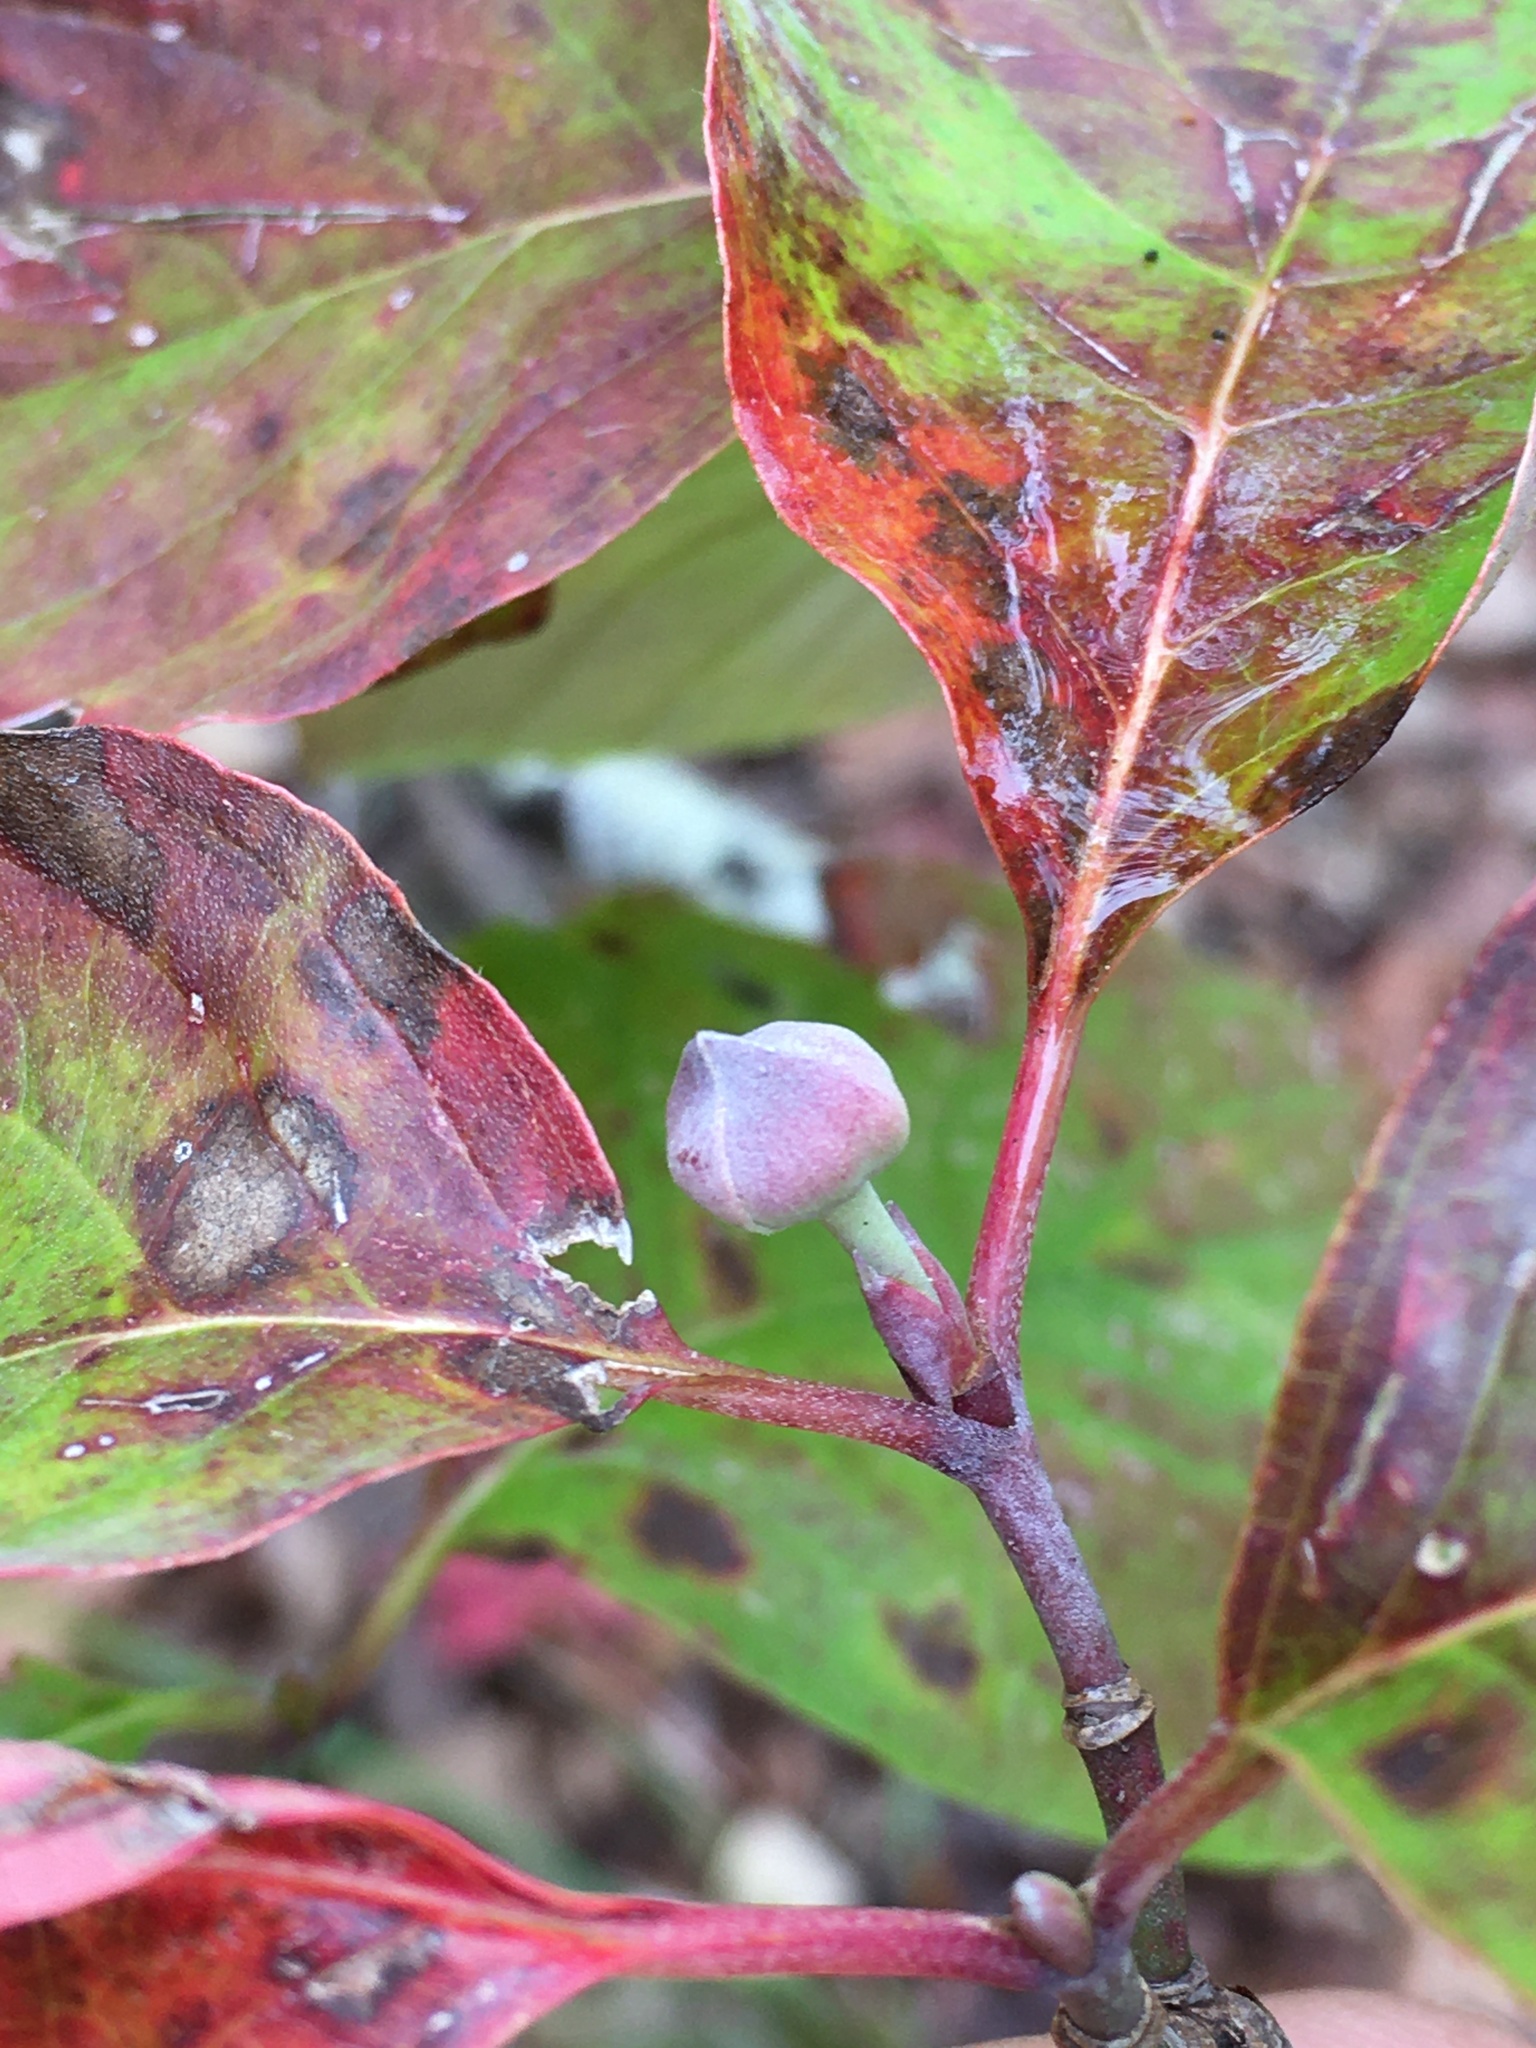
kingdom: Plantae
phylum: Tracheophyta
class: Magnoliopsida
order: Cornales
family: Cornaceae
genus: Cornus
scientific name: Cornus florida
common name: Flowering dogwood
